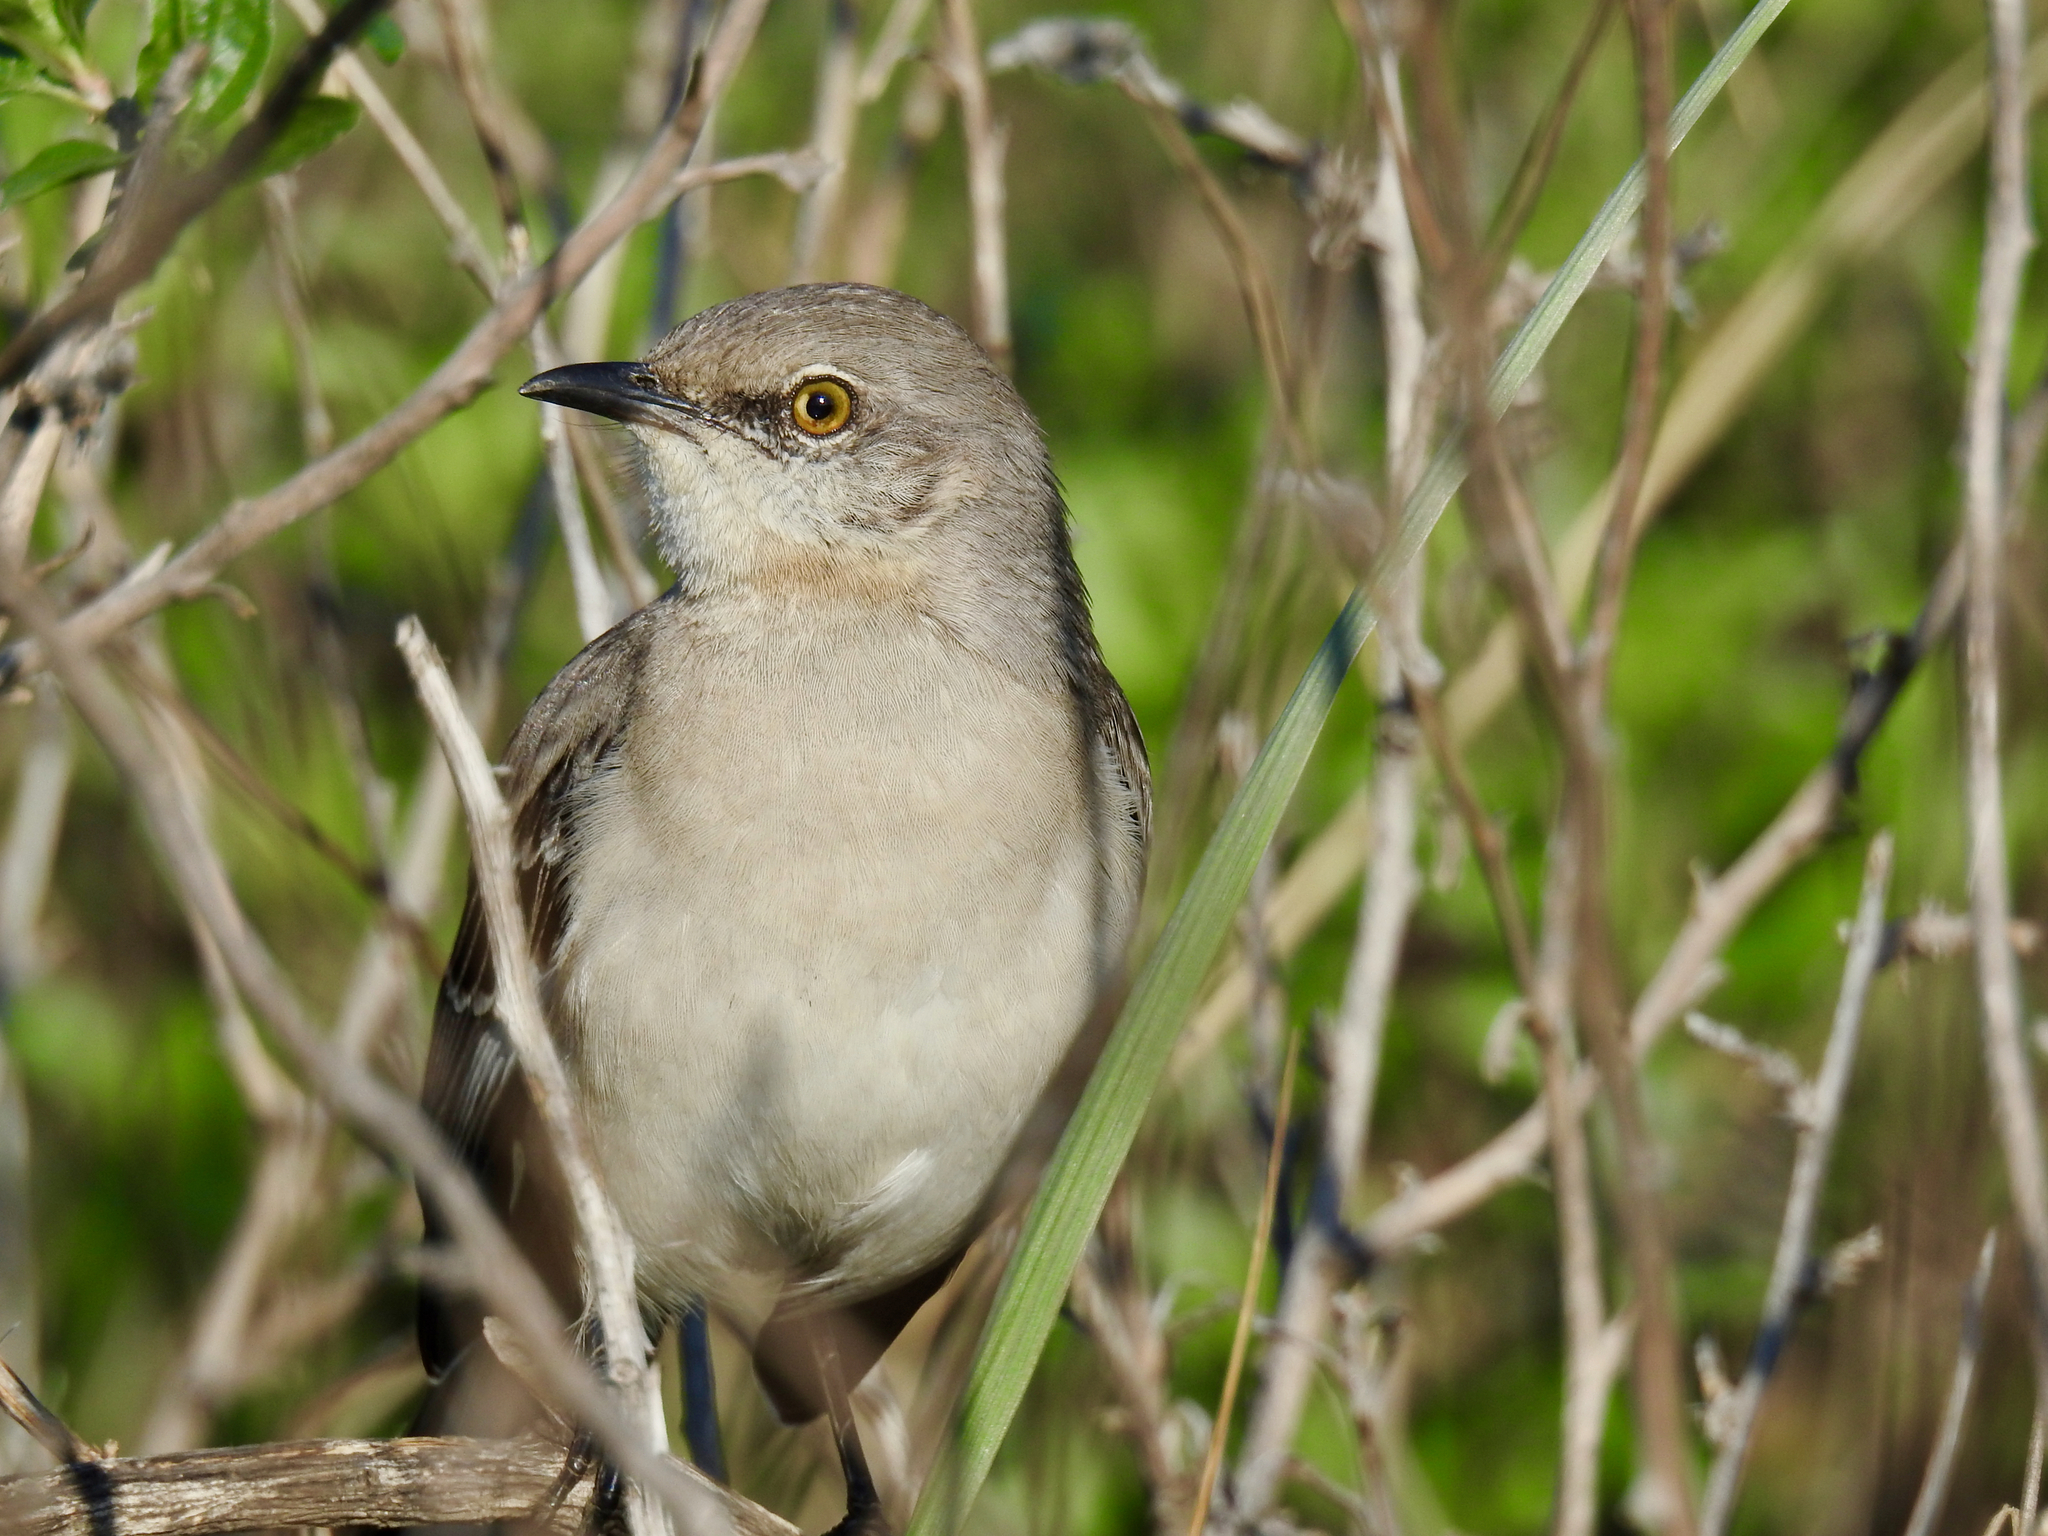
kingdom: Animalia
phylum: Chordata
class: Aves
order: Passeriformes
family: Mimidae
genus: Mimus
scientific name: Mimus polyglottos
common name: Northern mockingbird
